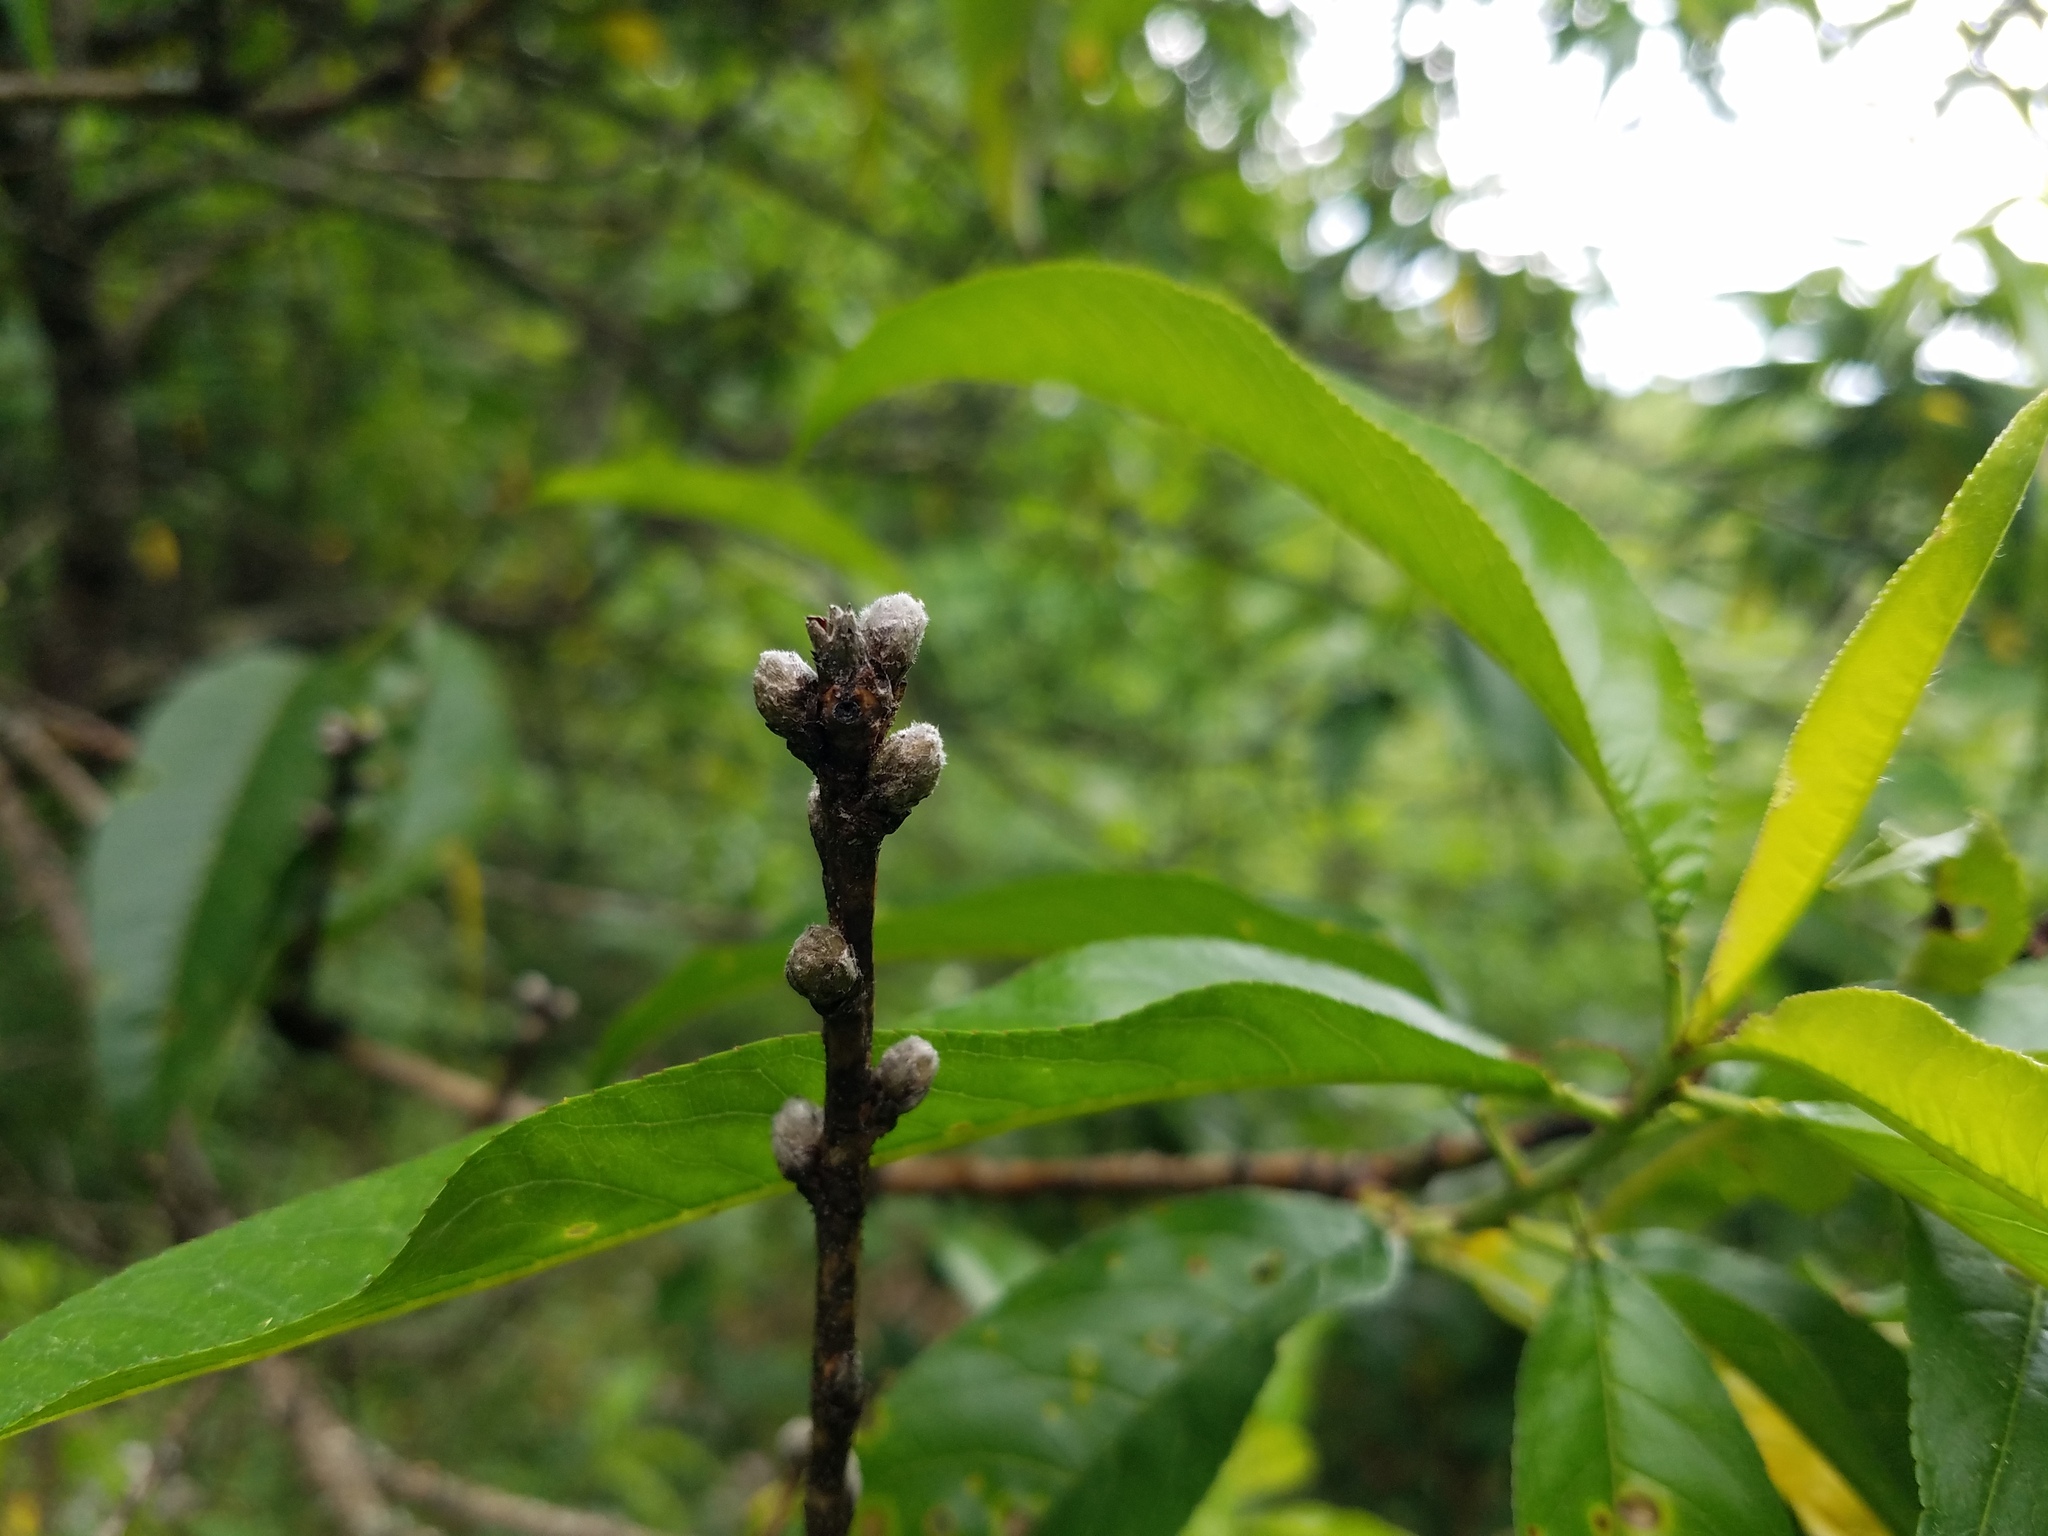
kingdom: Plantae
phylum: Tracheophyta
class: Magnoliopsida
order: Rosales
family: Rosaceae
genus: Prunus
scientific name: Prunus persica
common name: Peach
